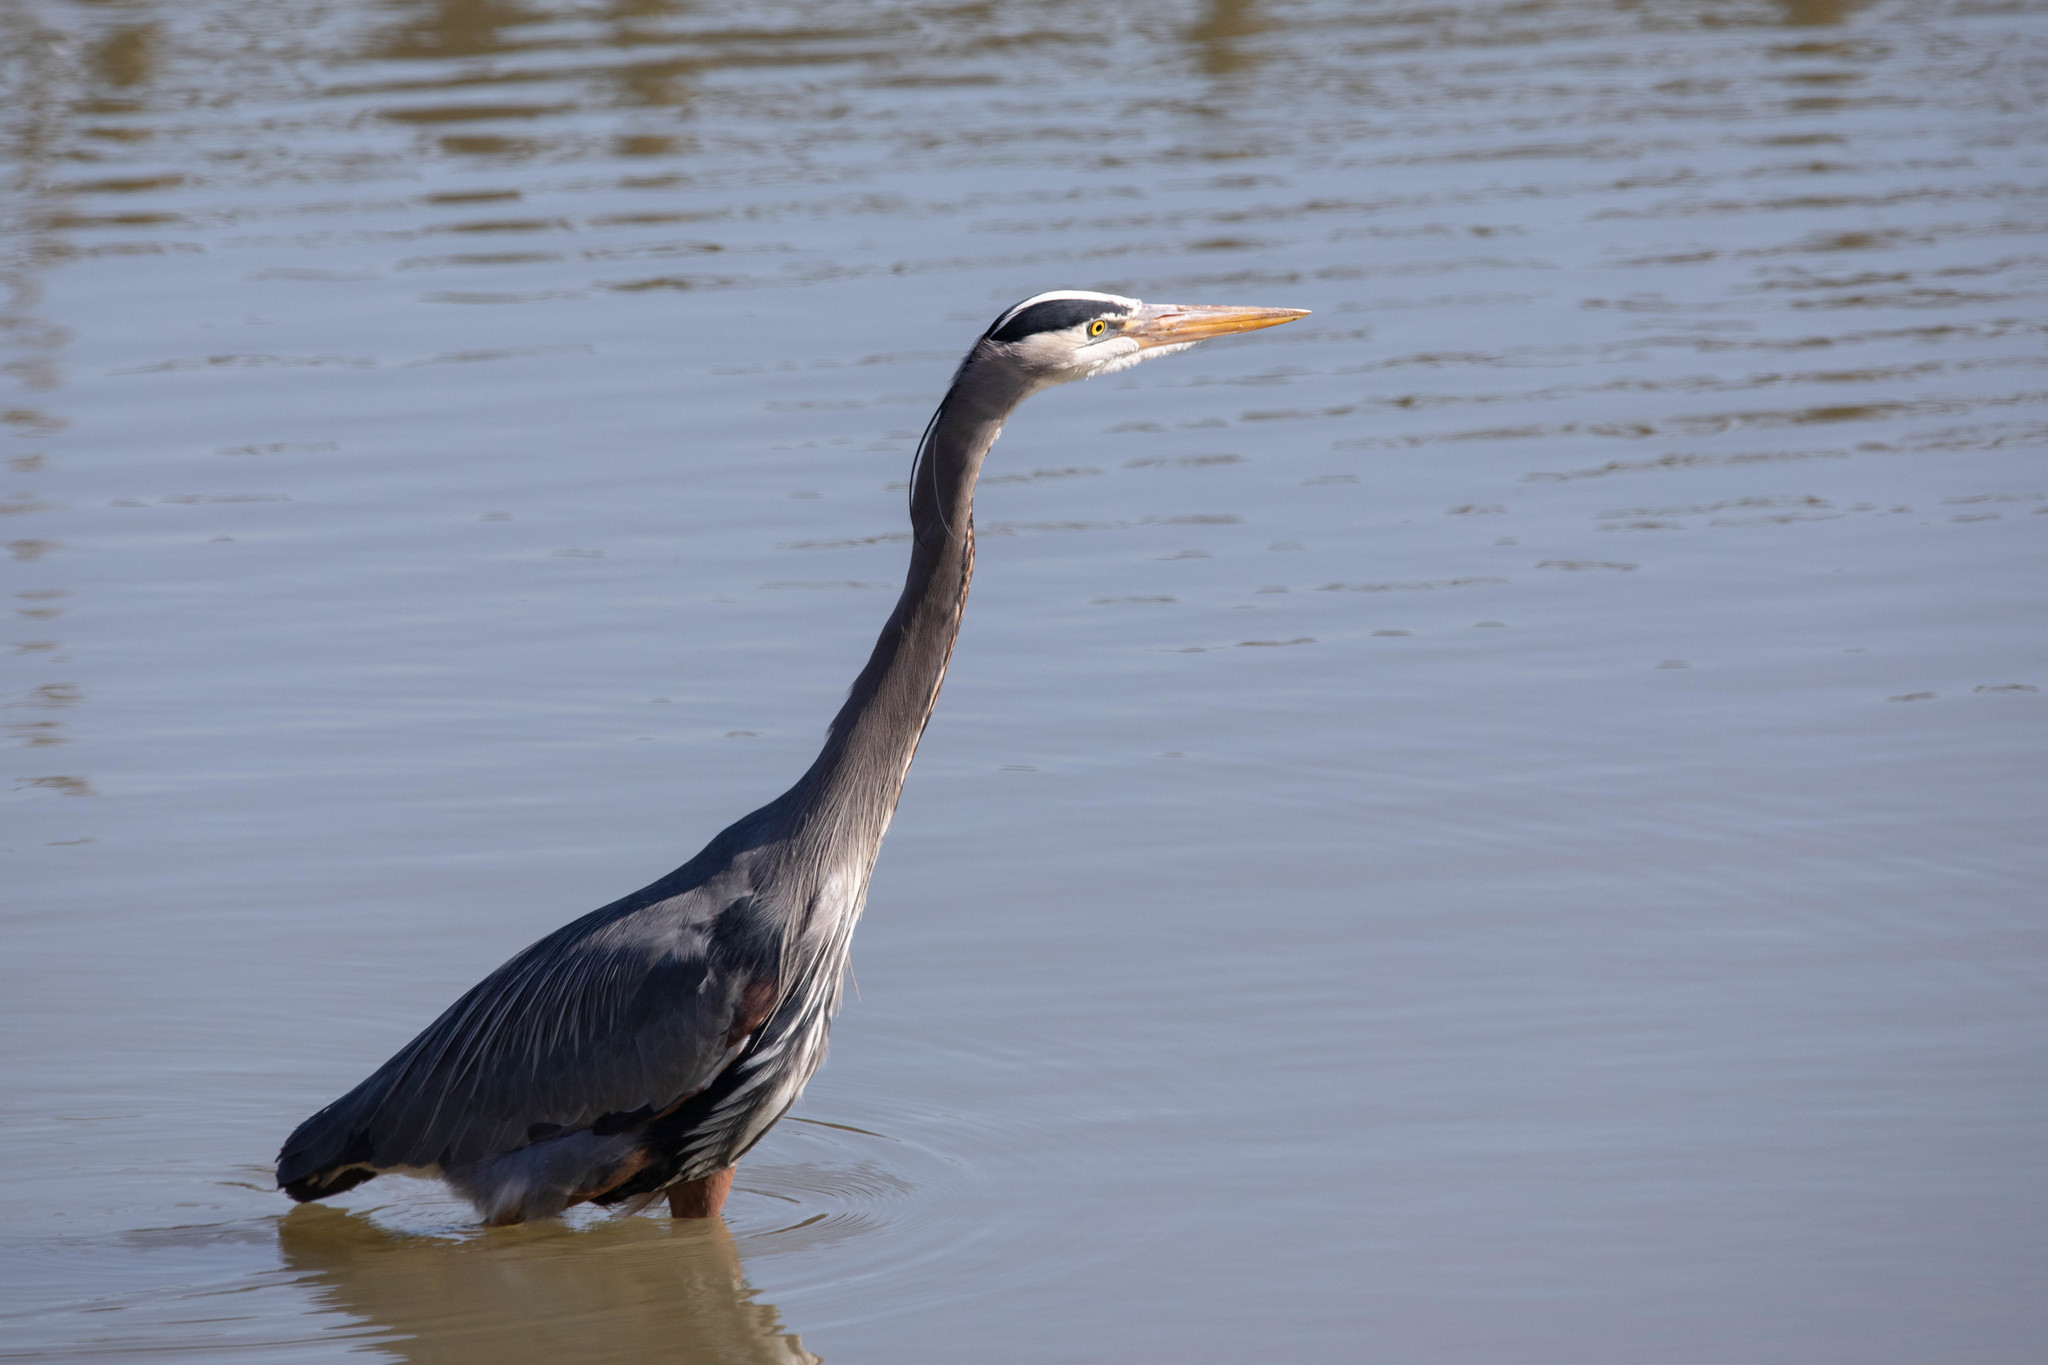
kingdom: Animalia
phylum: Chordata
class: Aves
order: Pelecaniformes
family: Ardeidae
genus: Ardea
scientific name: Ardea herodias
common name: Great blue heron
